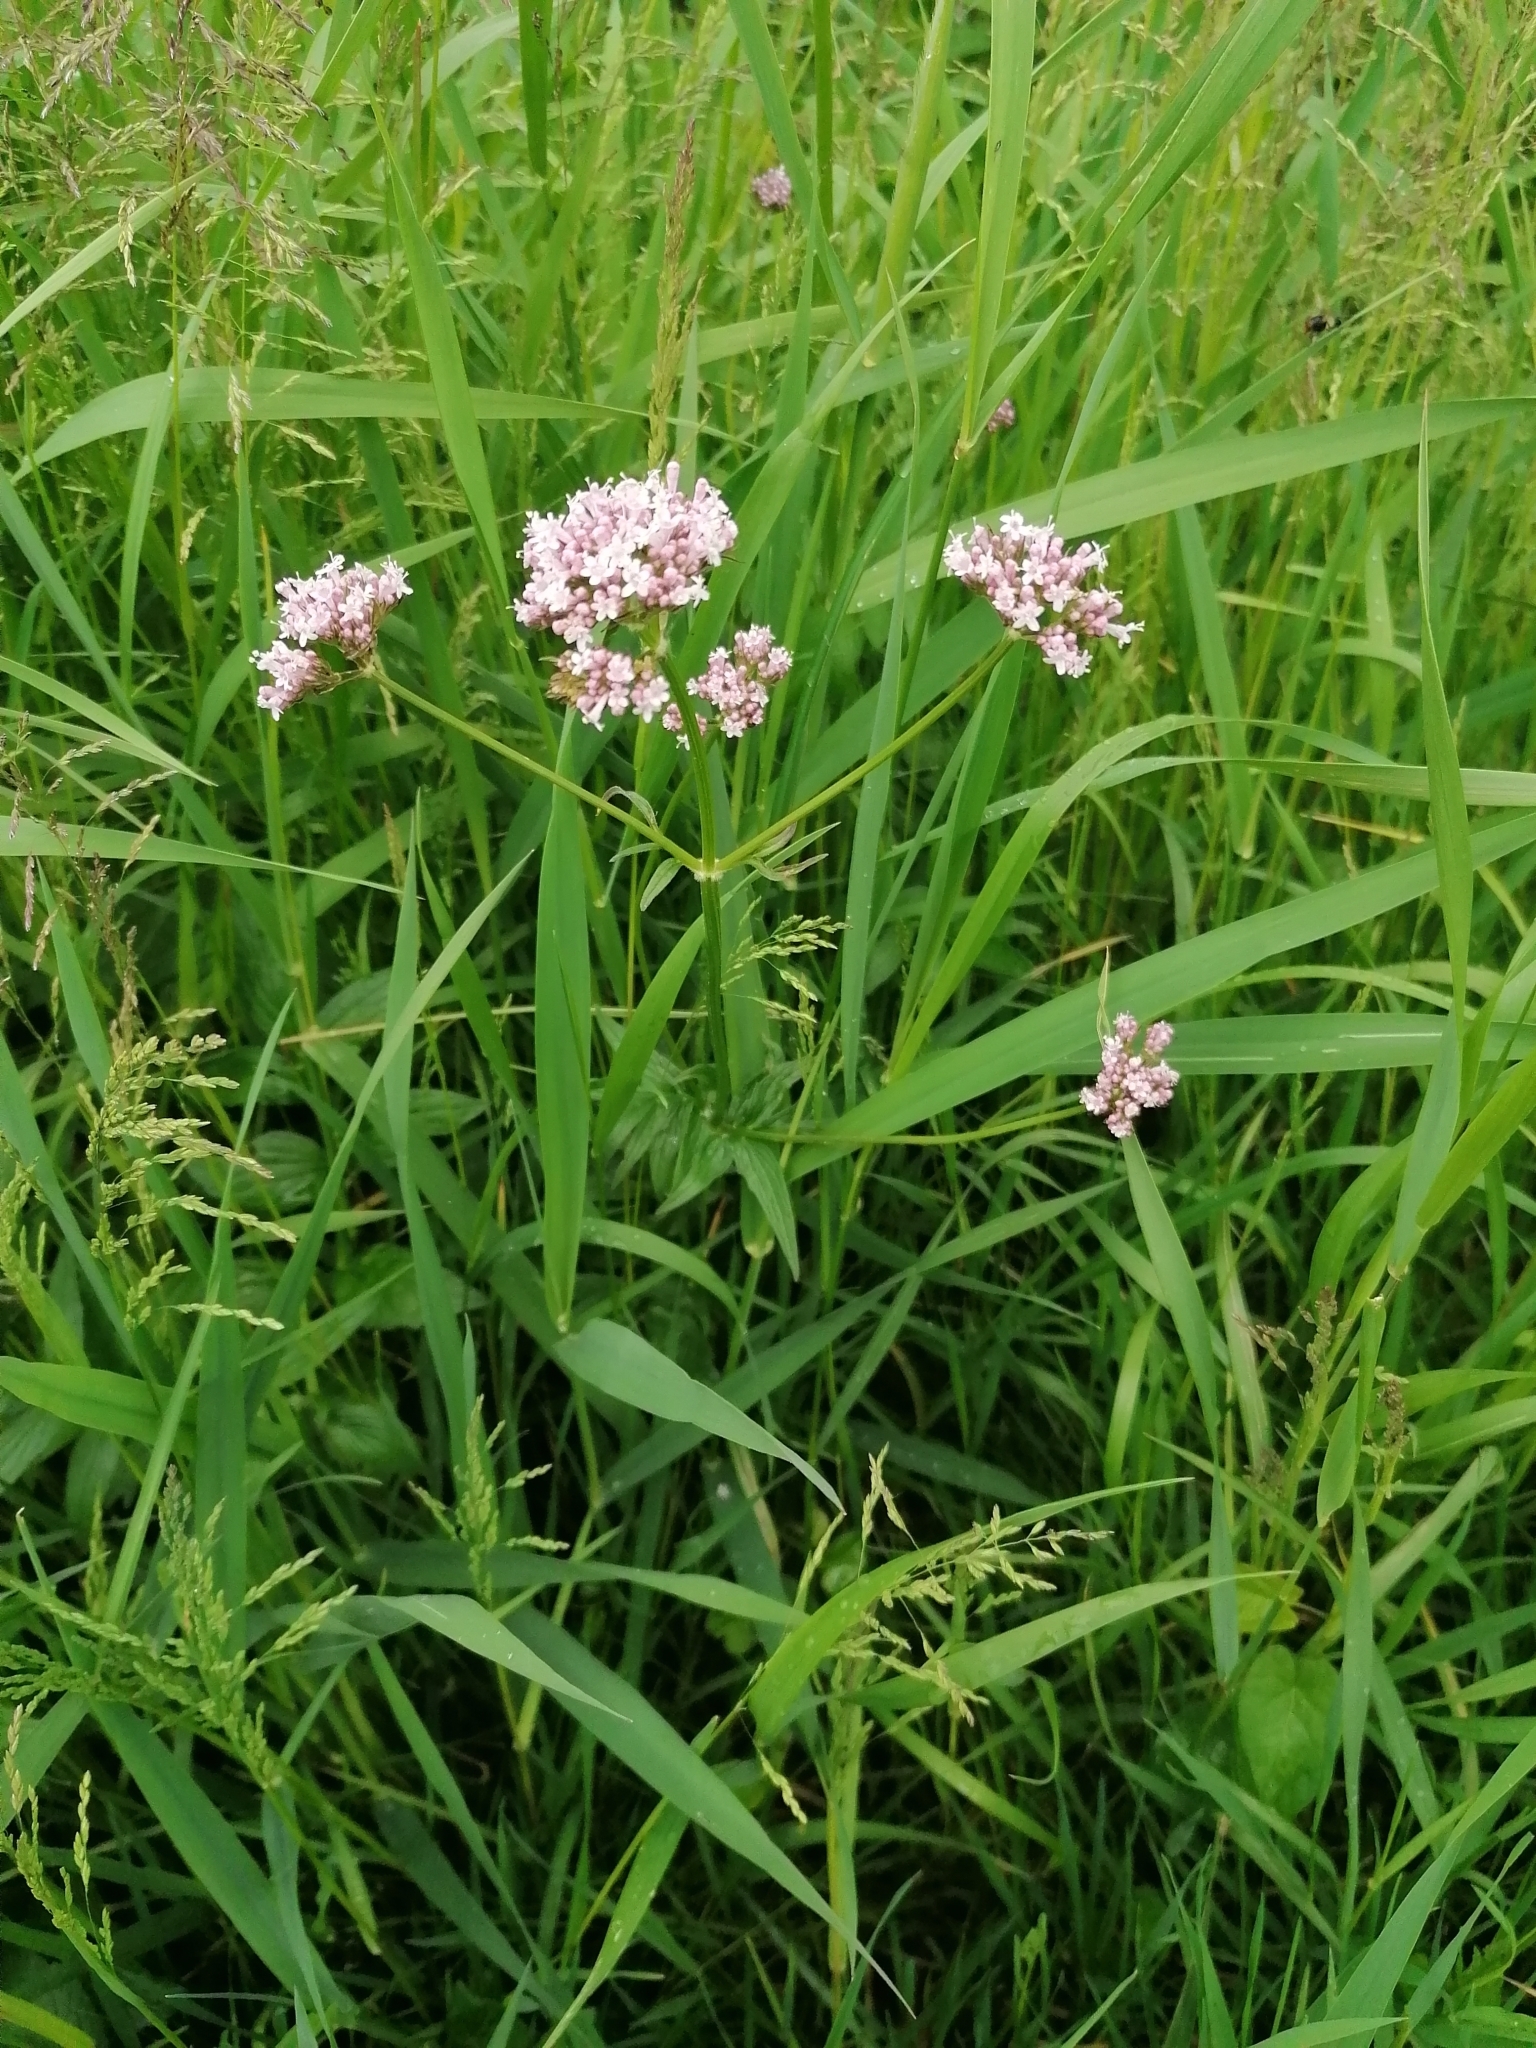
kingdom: Plantae
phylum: Tracheophyta
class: Magnoliopsida
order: Dipsacales
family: Caprifoliaceae
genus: Valeriana
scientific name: Valeriana officinalis
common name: Common valerian
